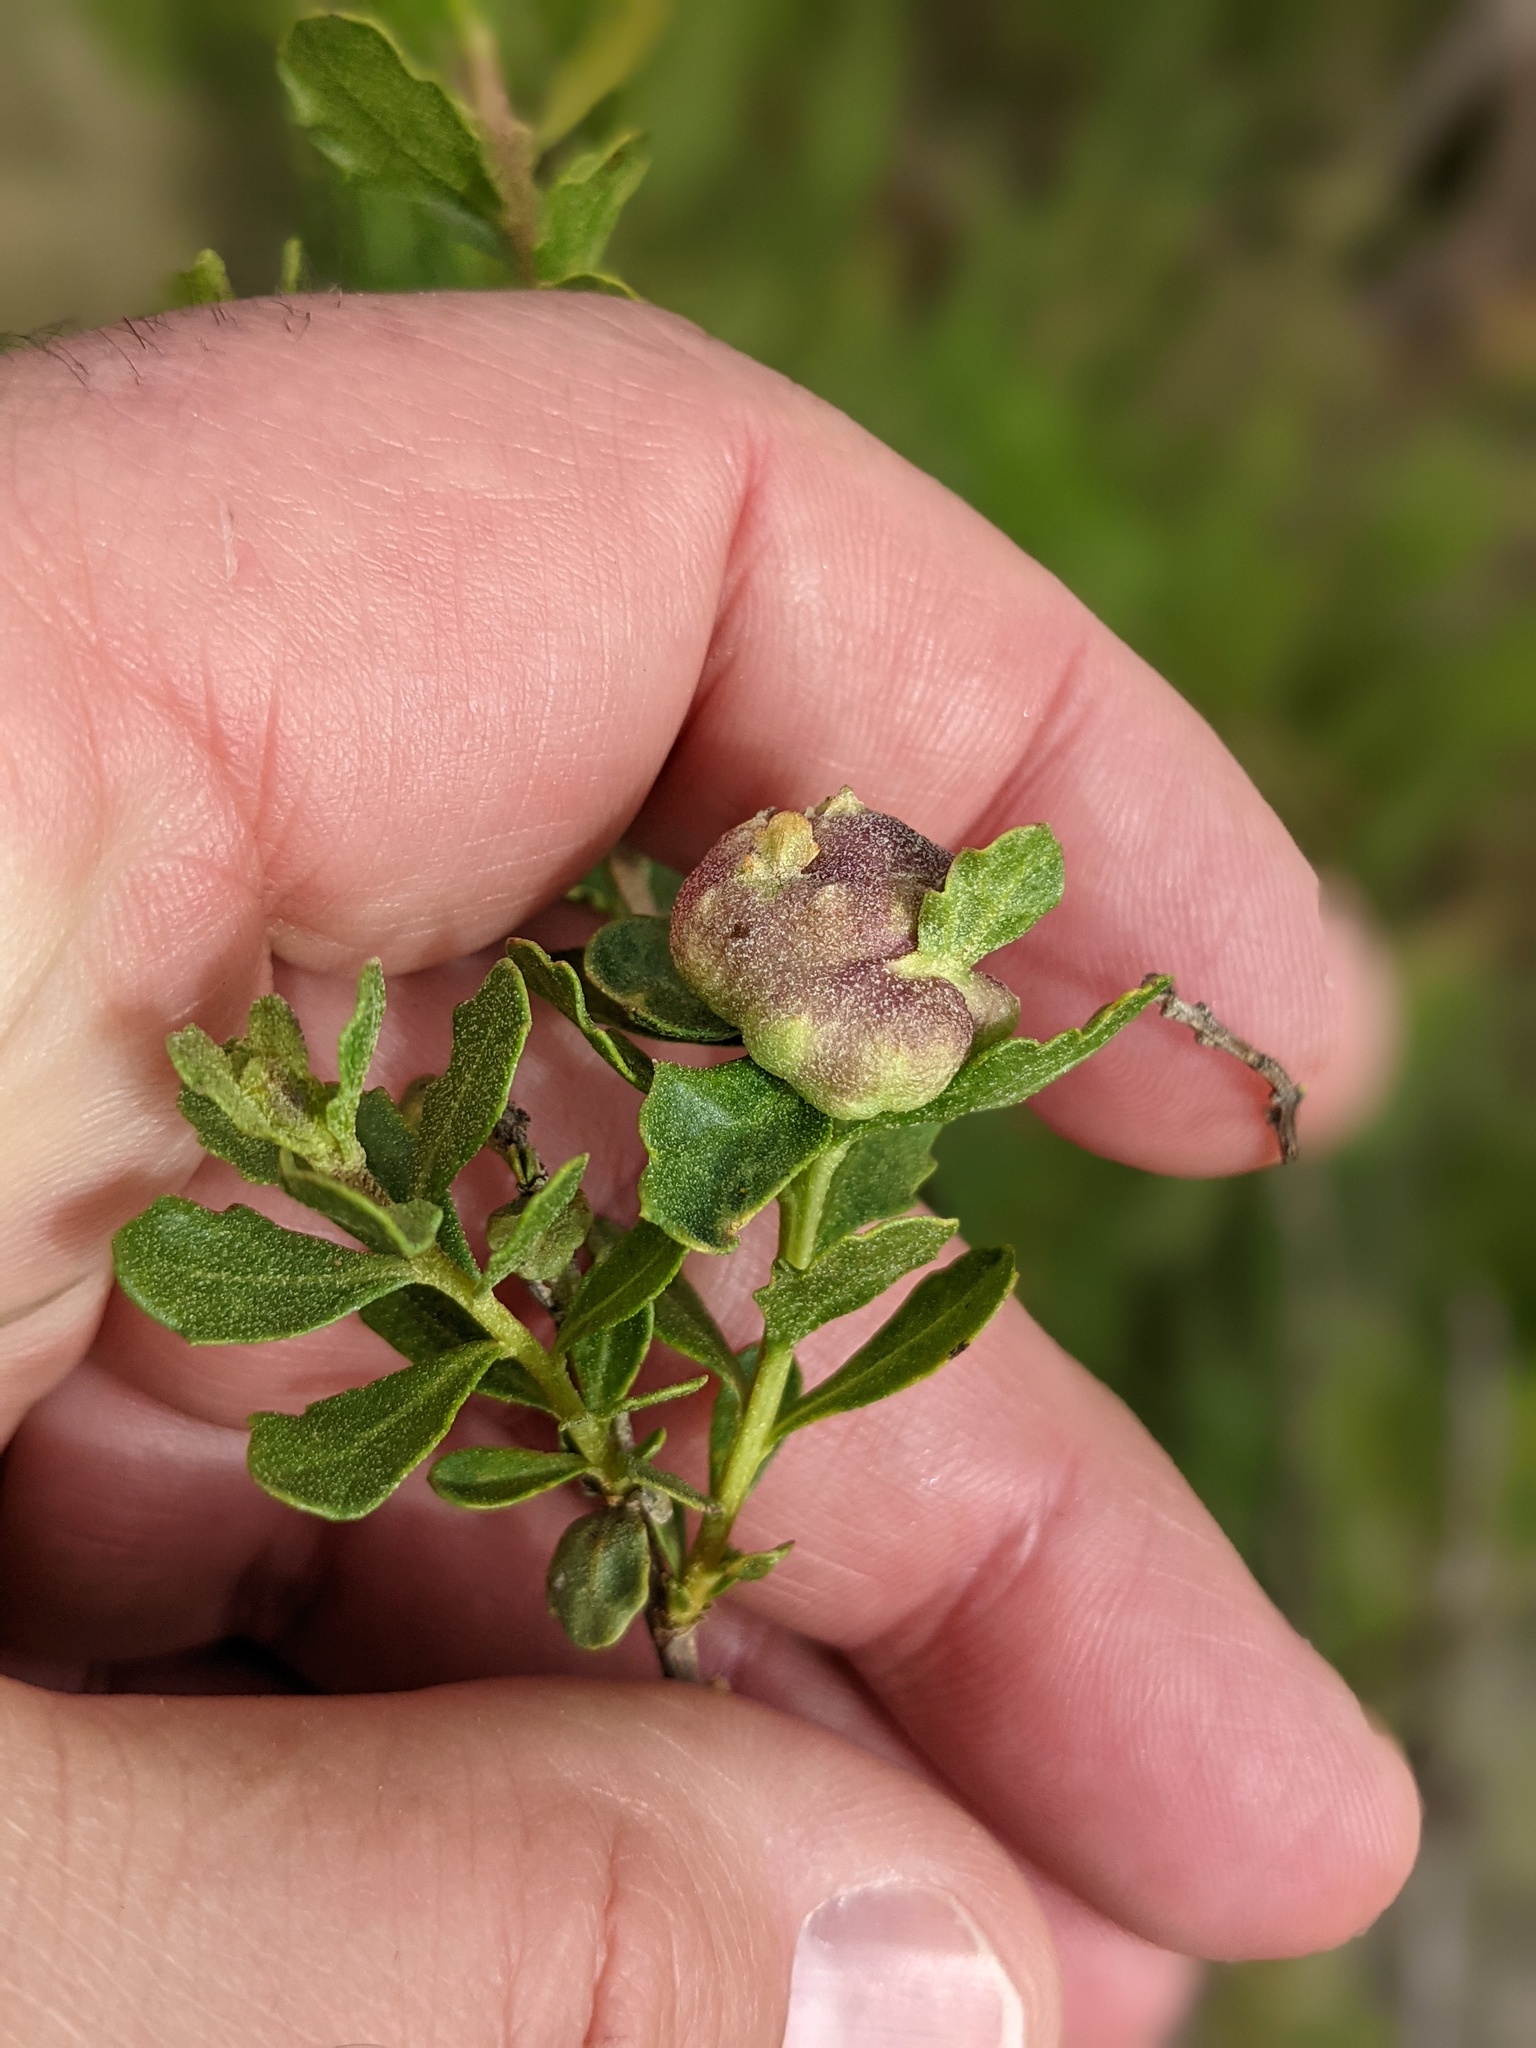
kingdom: Animalia
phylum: Arthropoda
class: Insecta
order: Diptera
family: Cecidomyiidae
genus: Rhopalomyia
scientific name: Rhopalomyia californica
